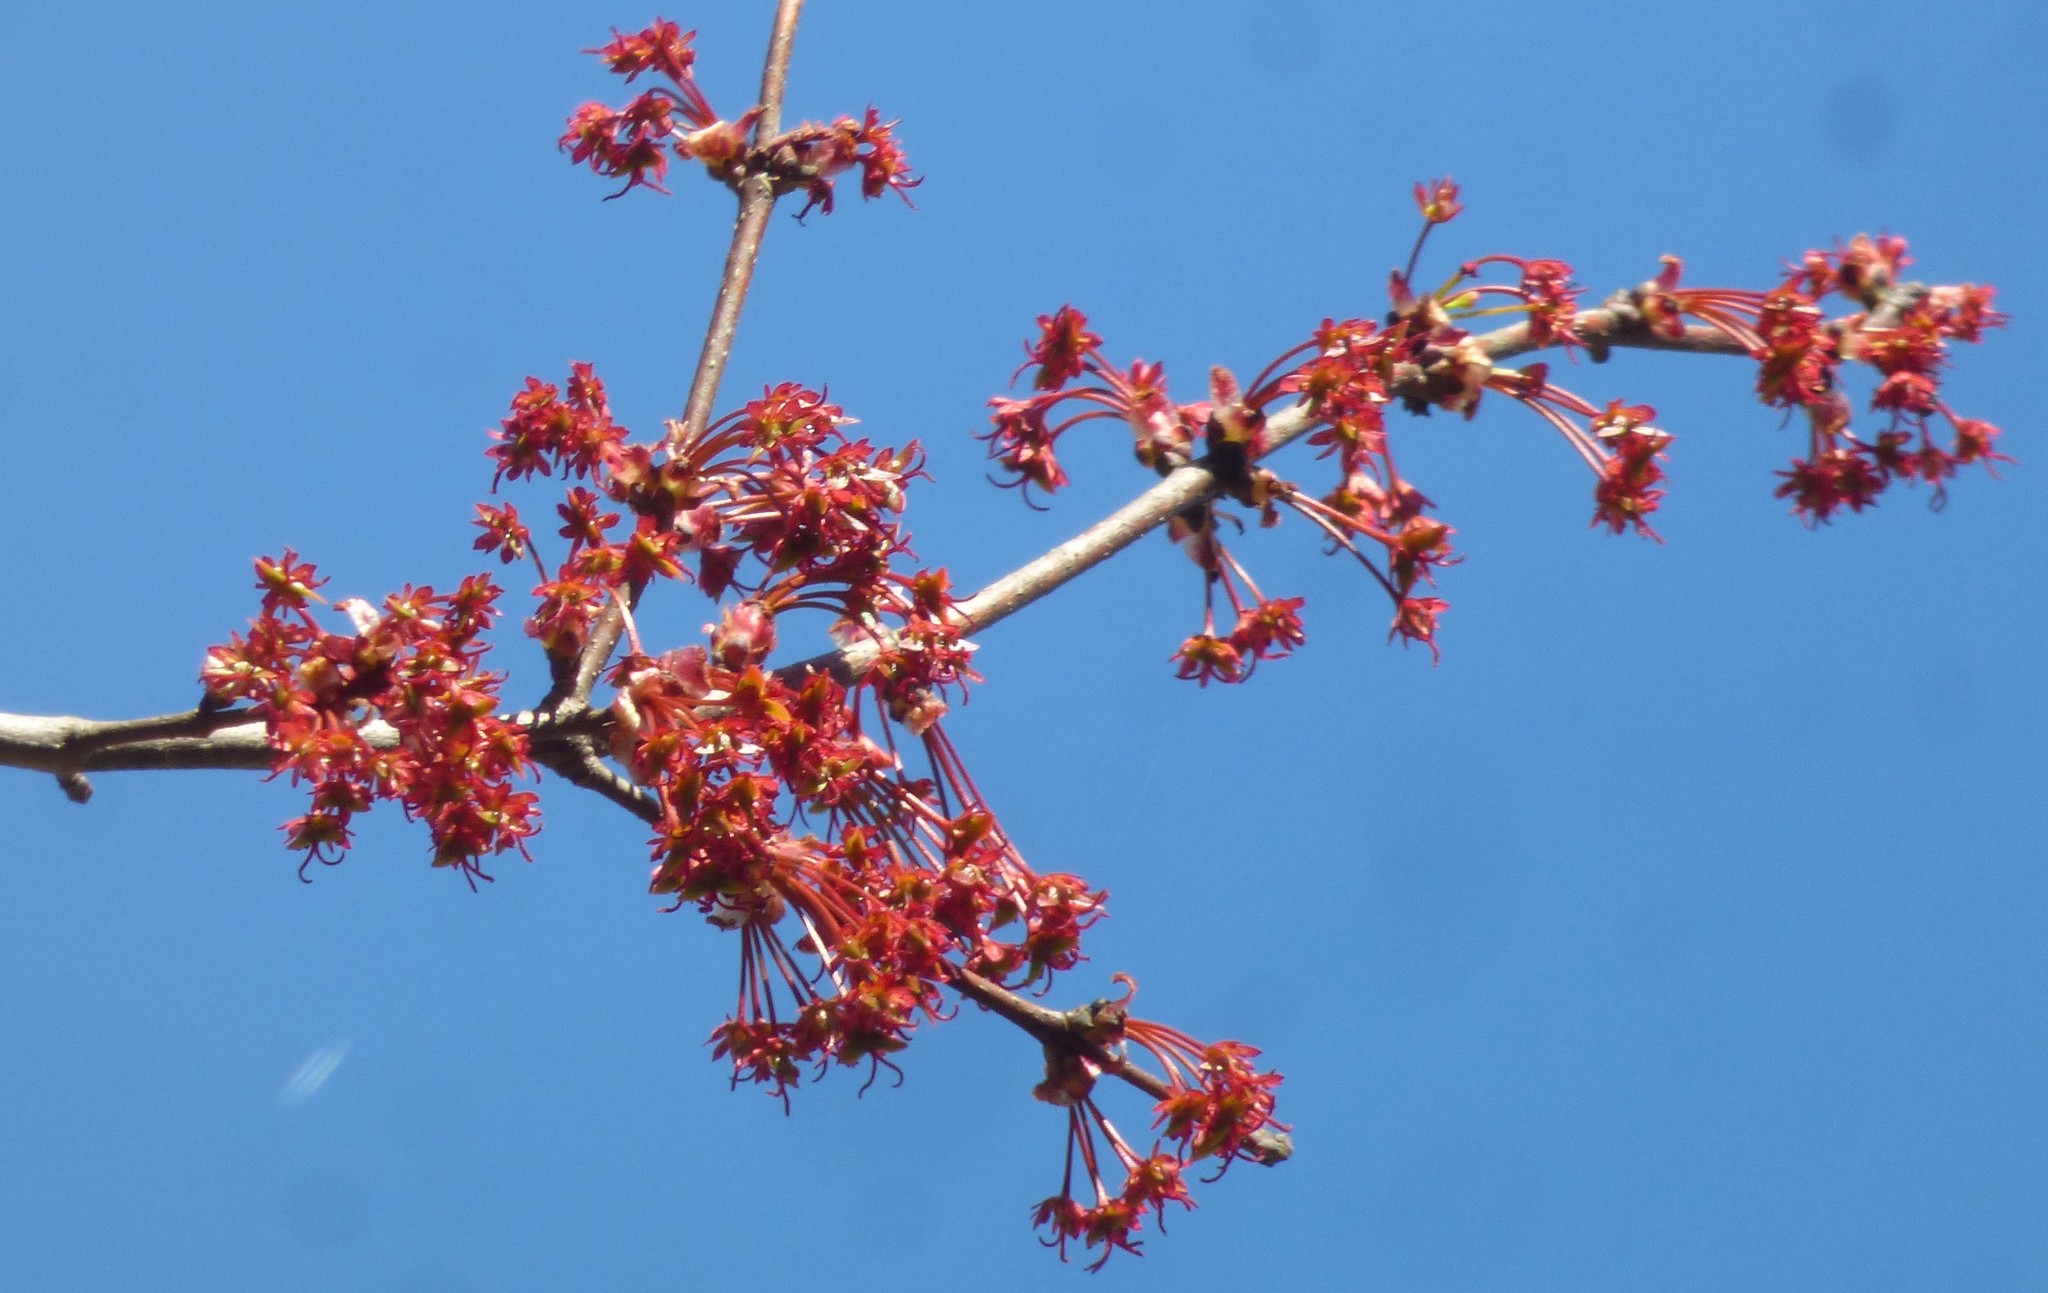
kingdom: Plantae
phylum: Tracheophyta
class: Magnoliopsida
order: Sapindales
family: Sapindaceae
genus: Acer
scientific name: Acer rubrum
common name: Red maple
